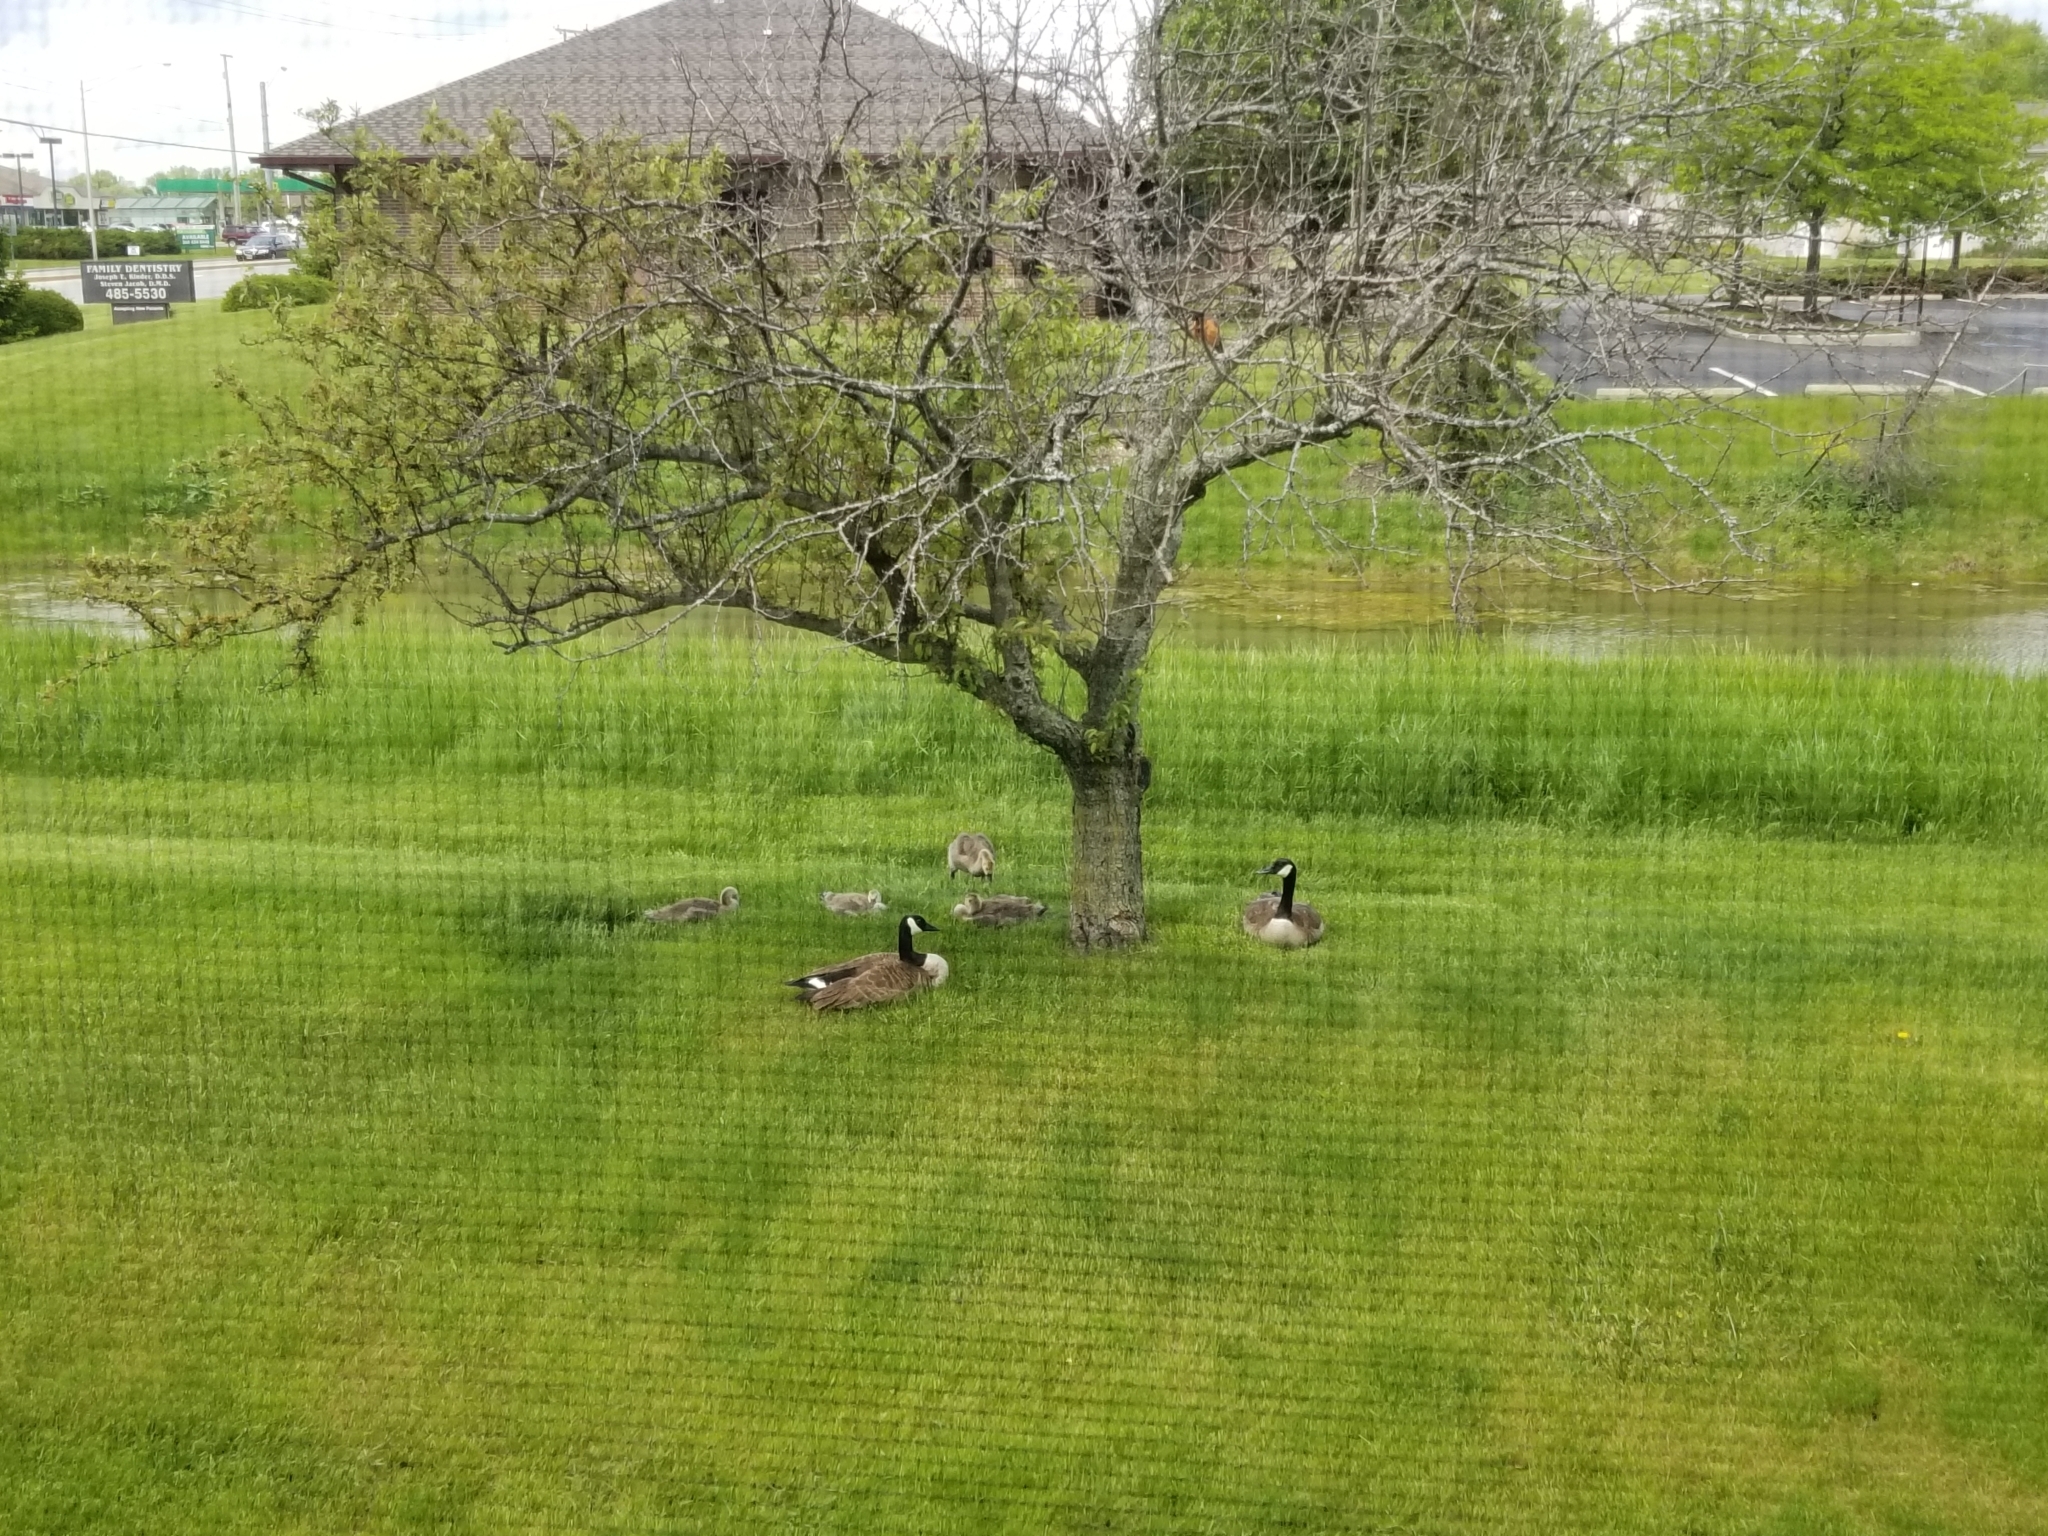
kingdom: Animalia
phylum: Chordata
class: Aves
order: Anseriformes
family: Anatidae
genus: Branta
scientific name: Branta canadensis
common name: Canada goose
